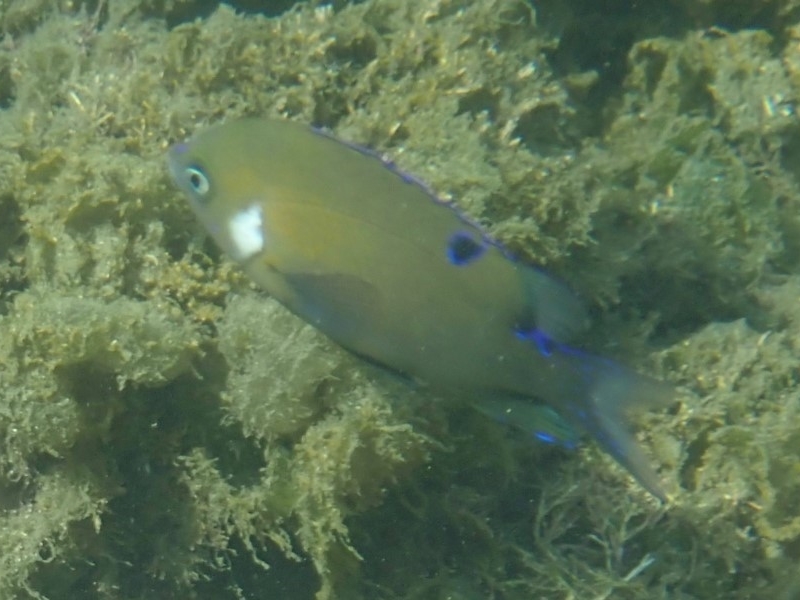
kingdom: Animalia
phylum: Chordata
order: Perciformes
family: Pomacentridae
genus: Parma
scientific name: Parma microlepis
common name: White-ear
